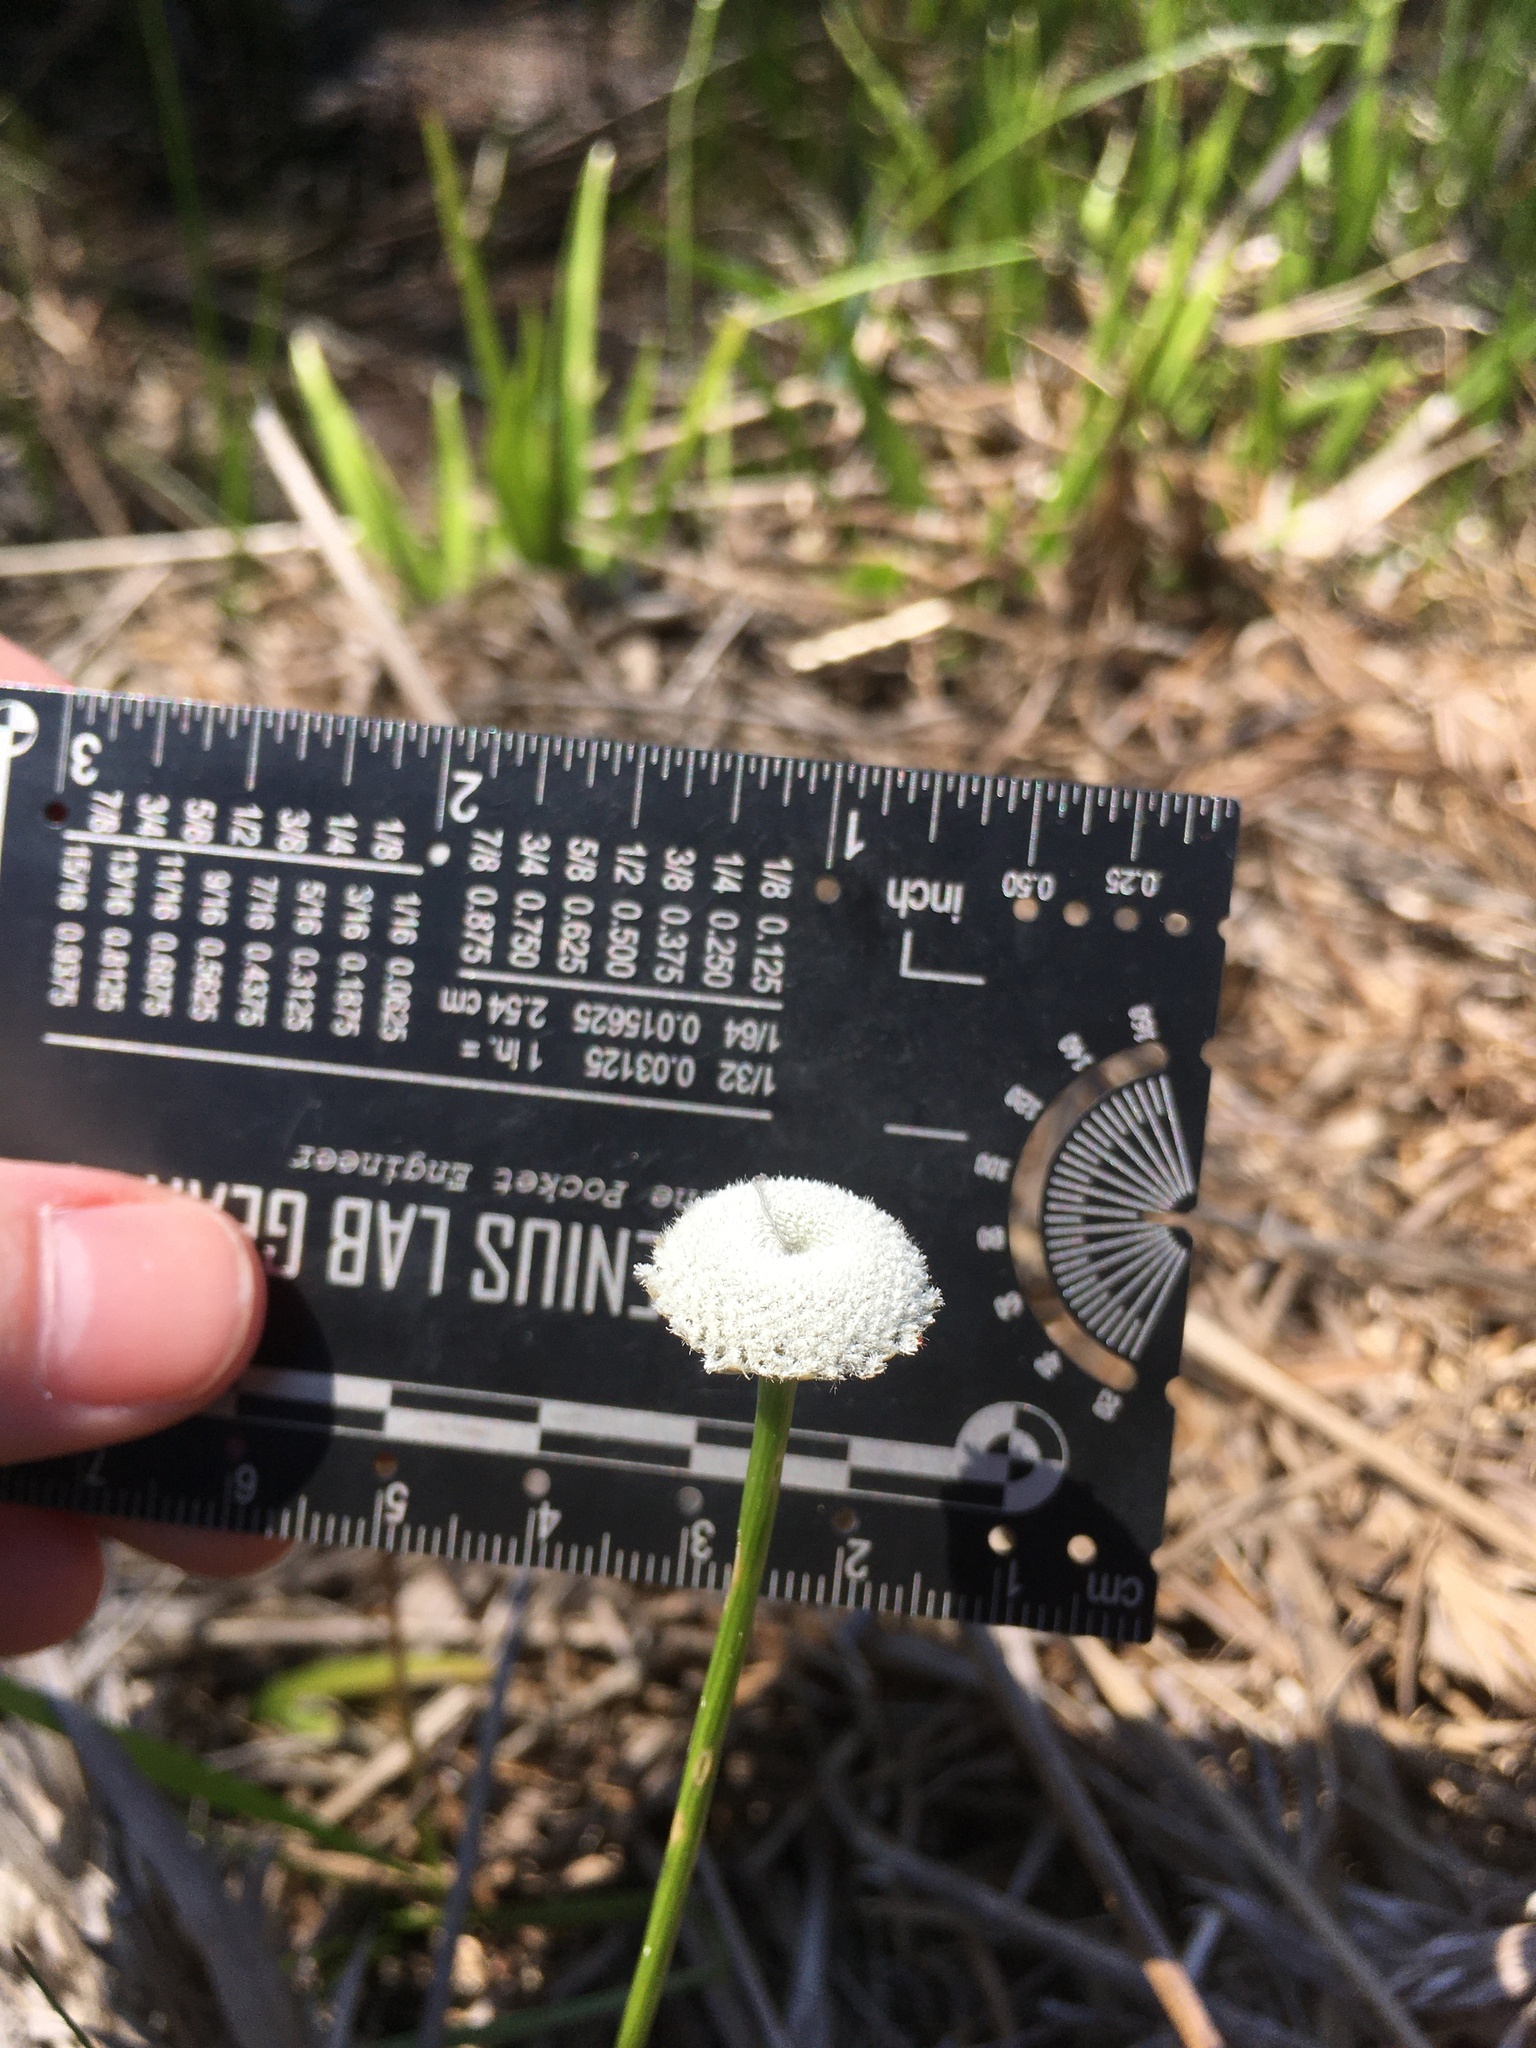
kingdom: Plantae
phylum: Tracheophyta
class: Liliopsida
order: Poales
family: Eriocaulaceae
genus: Eriocaulon
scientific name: Eriocaulon compressum
